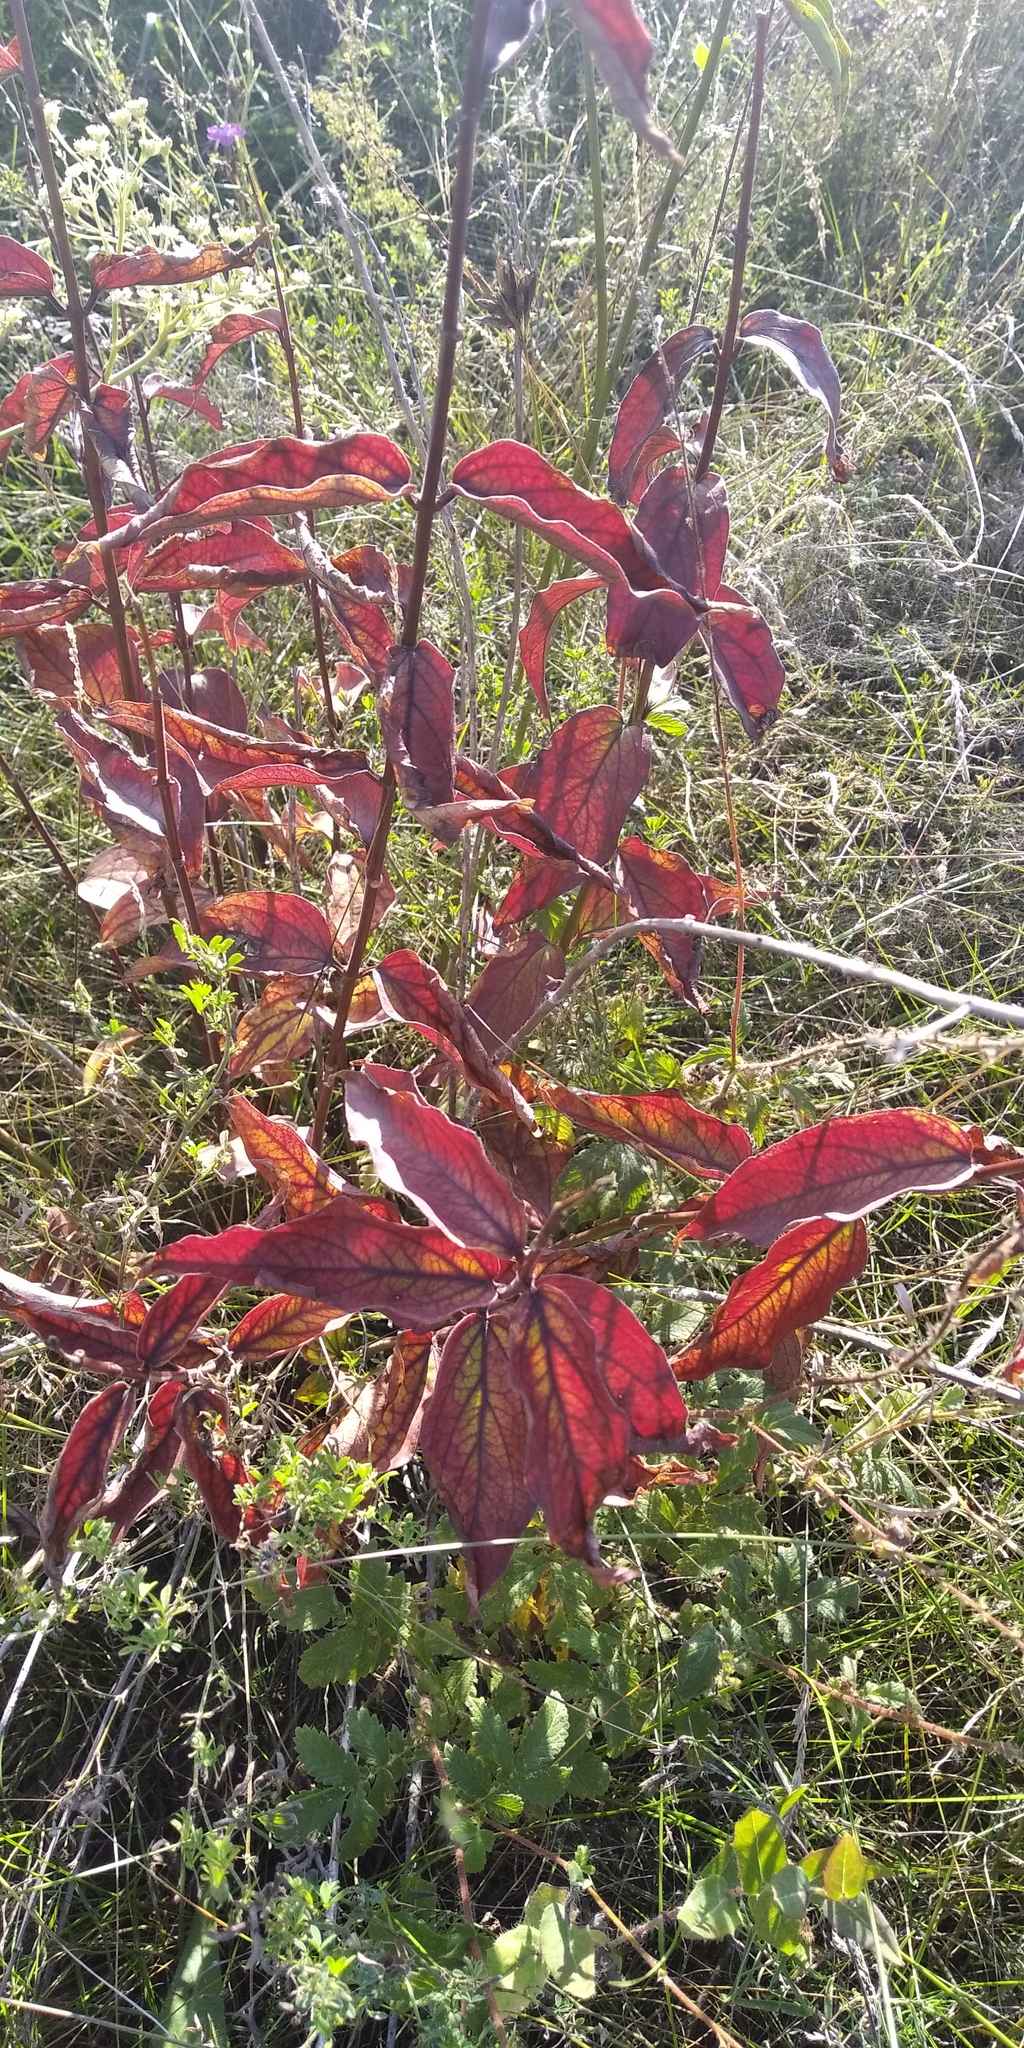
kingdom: Plantae
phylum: Tracheophyta
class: Magnoliopsida
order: Cornales
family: Cornaceae
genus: Cornus
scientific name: Cornus sanguinea
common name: Dogwood
